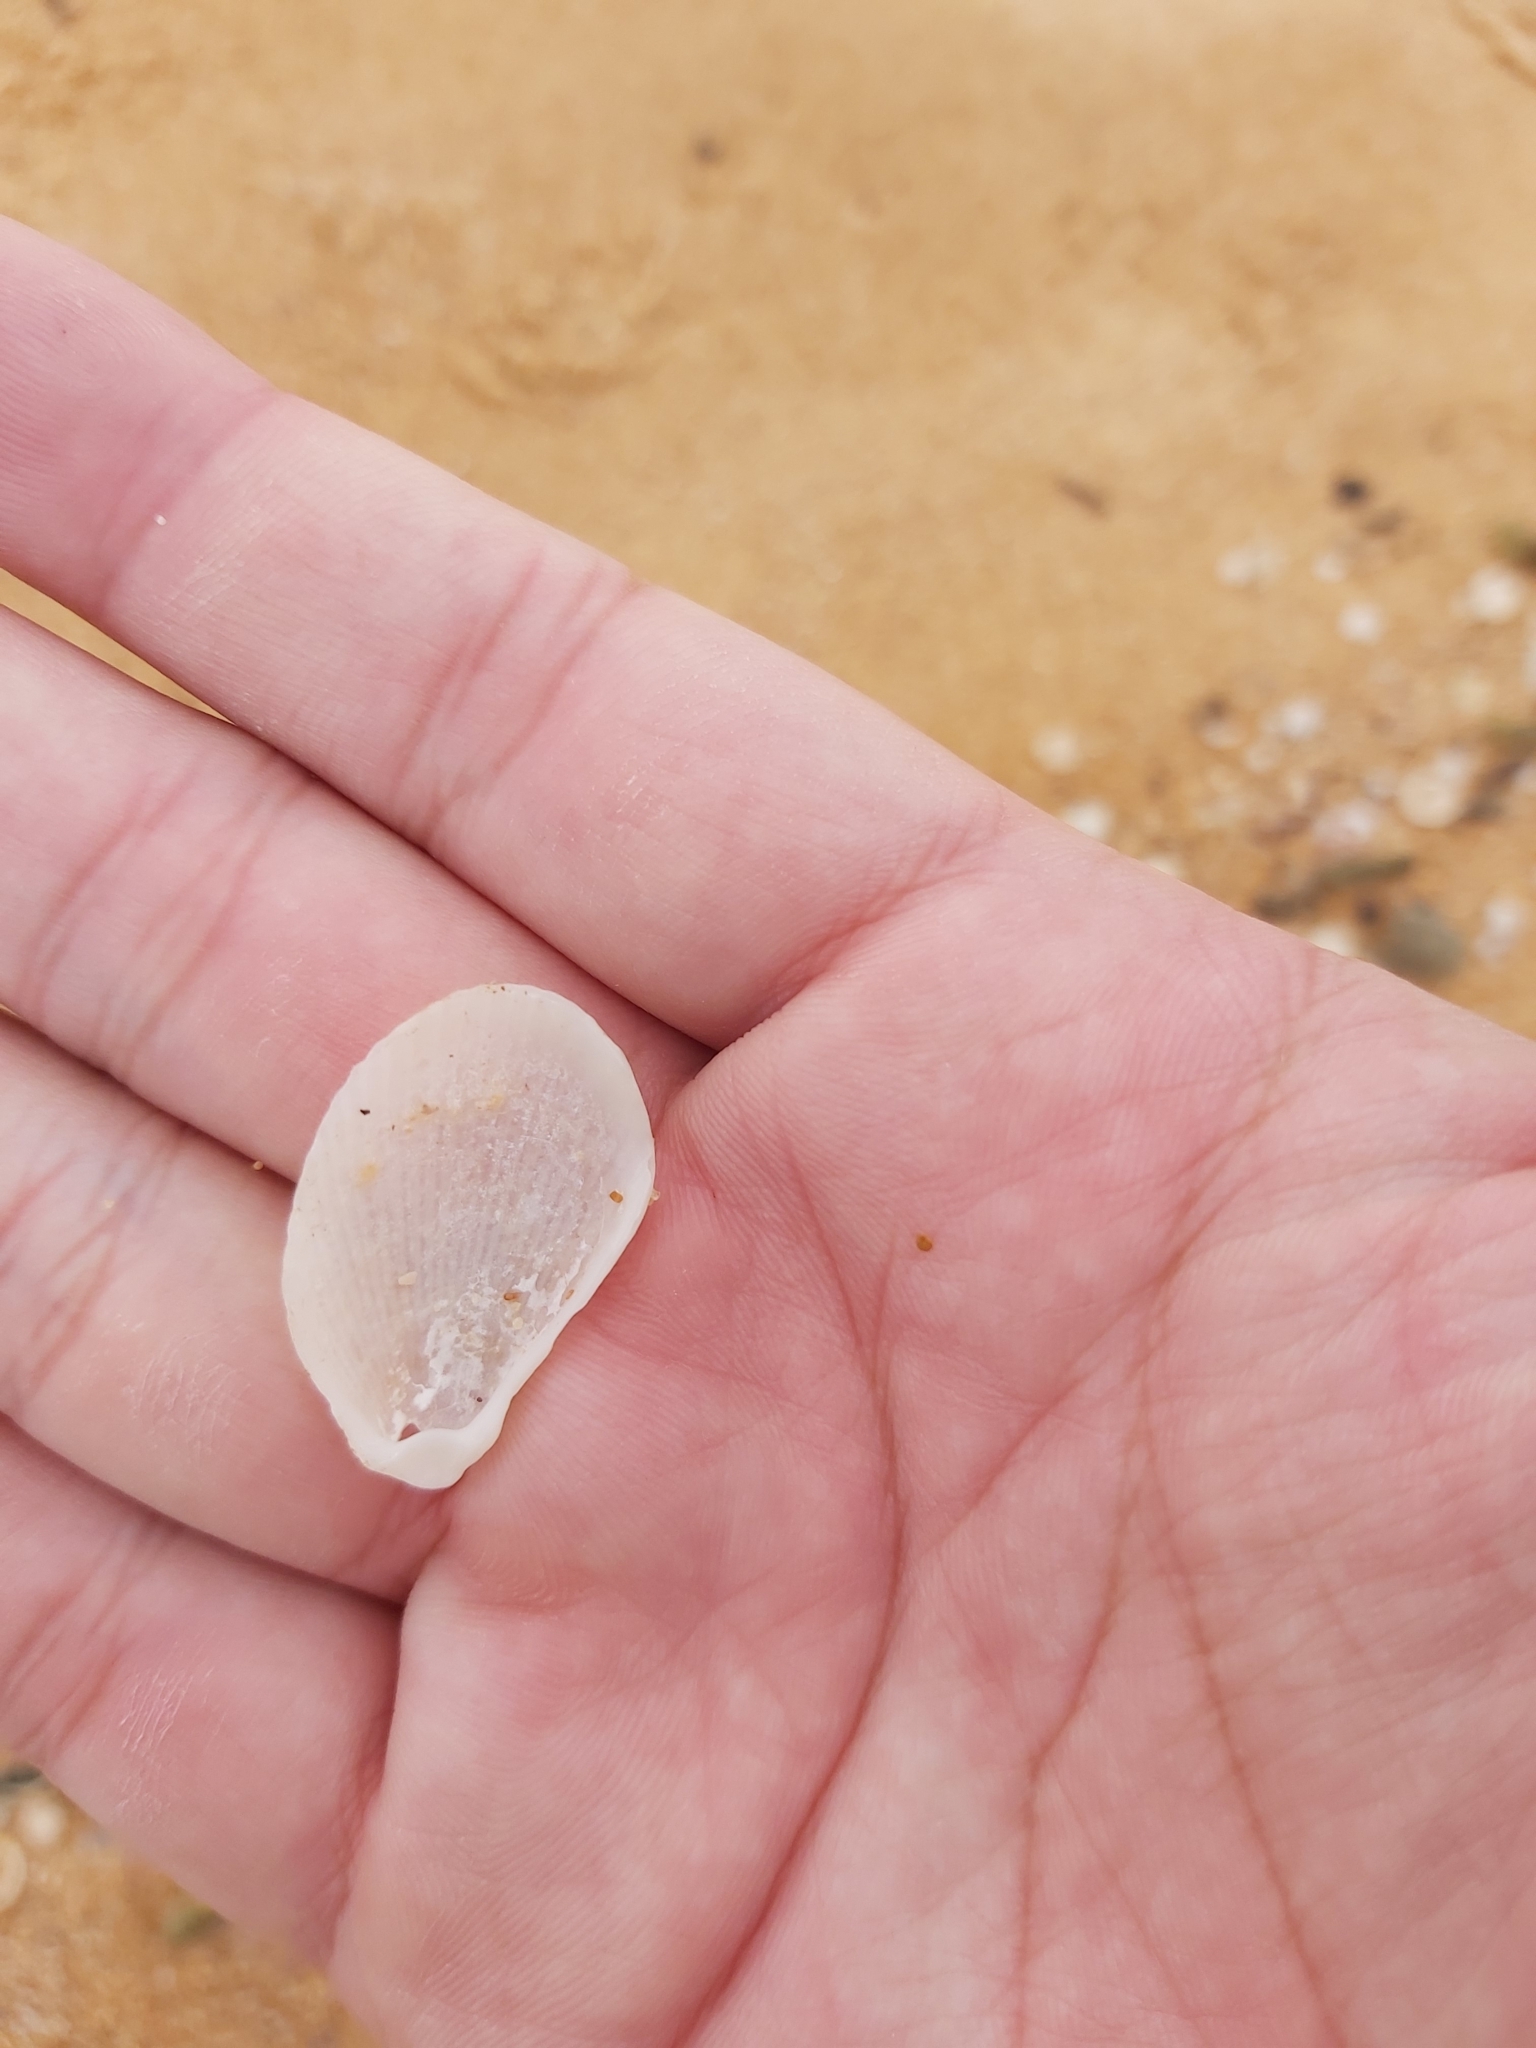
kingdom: Animalia
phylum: Mollusca
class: Bivalvia
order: Limida
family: Limidae
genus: Lima
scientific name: Lima nimbifer
